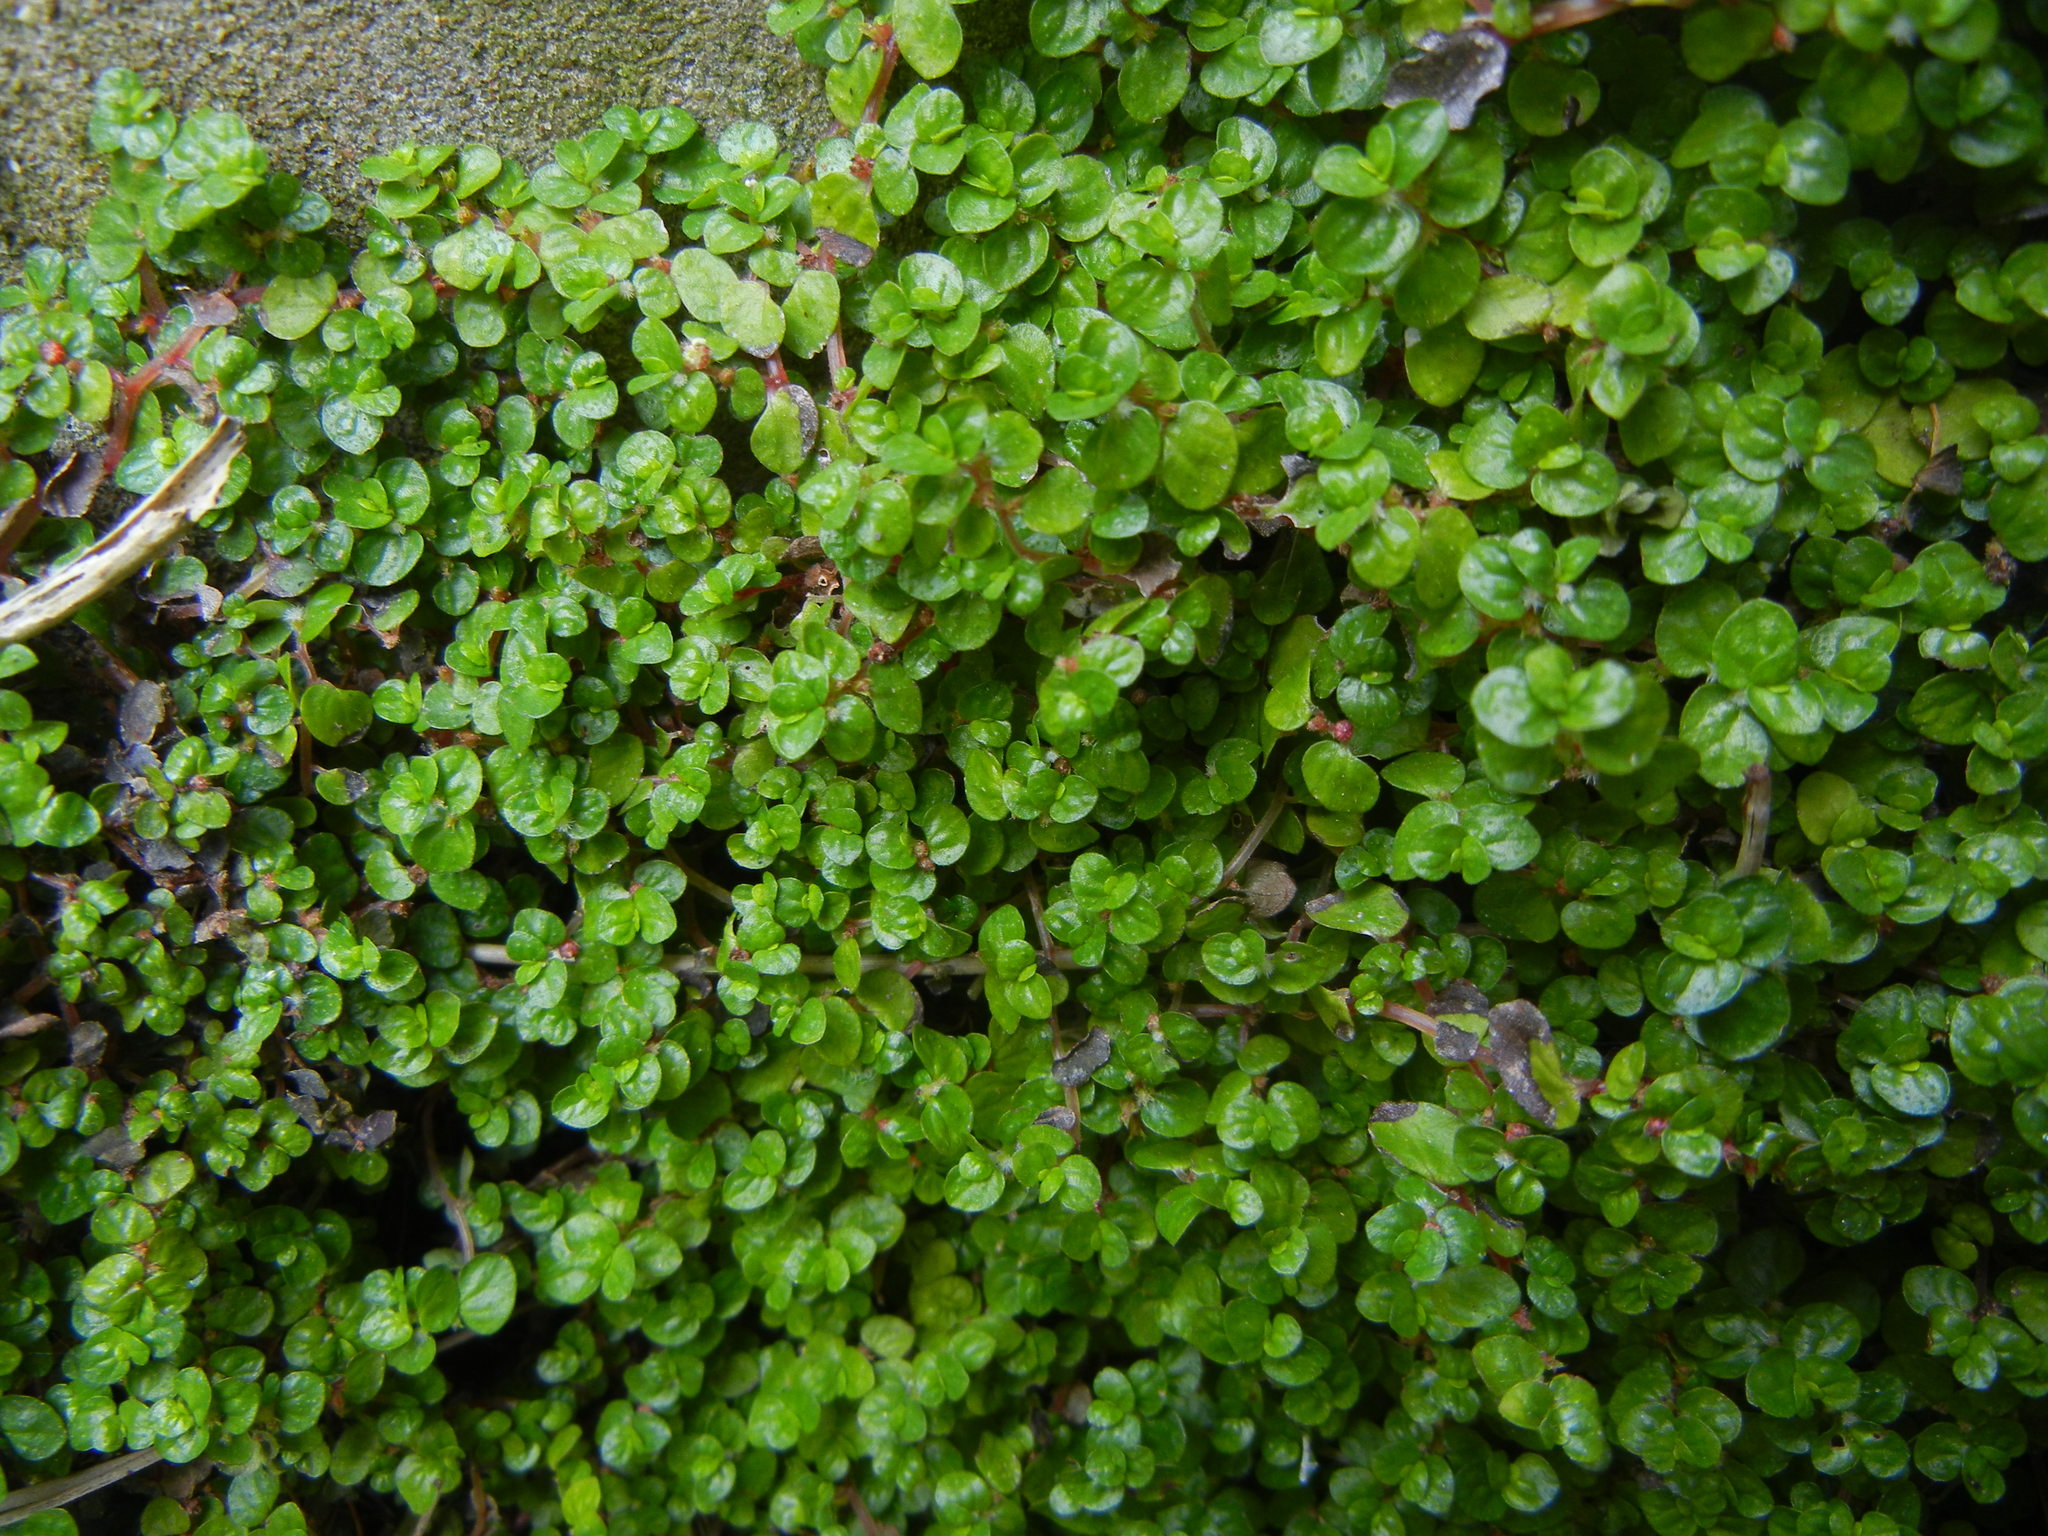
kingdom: Plantae
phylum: Tracheophyta
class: Magnoliopsida
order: Rosales
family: Urticaceae
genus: Soleirolia
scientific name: Soleirolia soleirolii
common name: Mind-your-own-business
